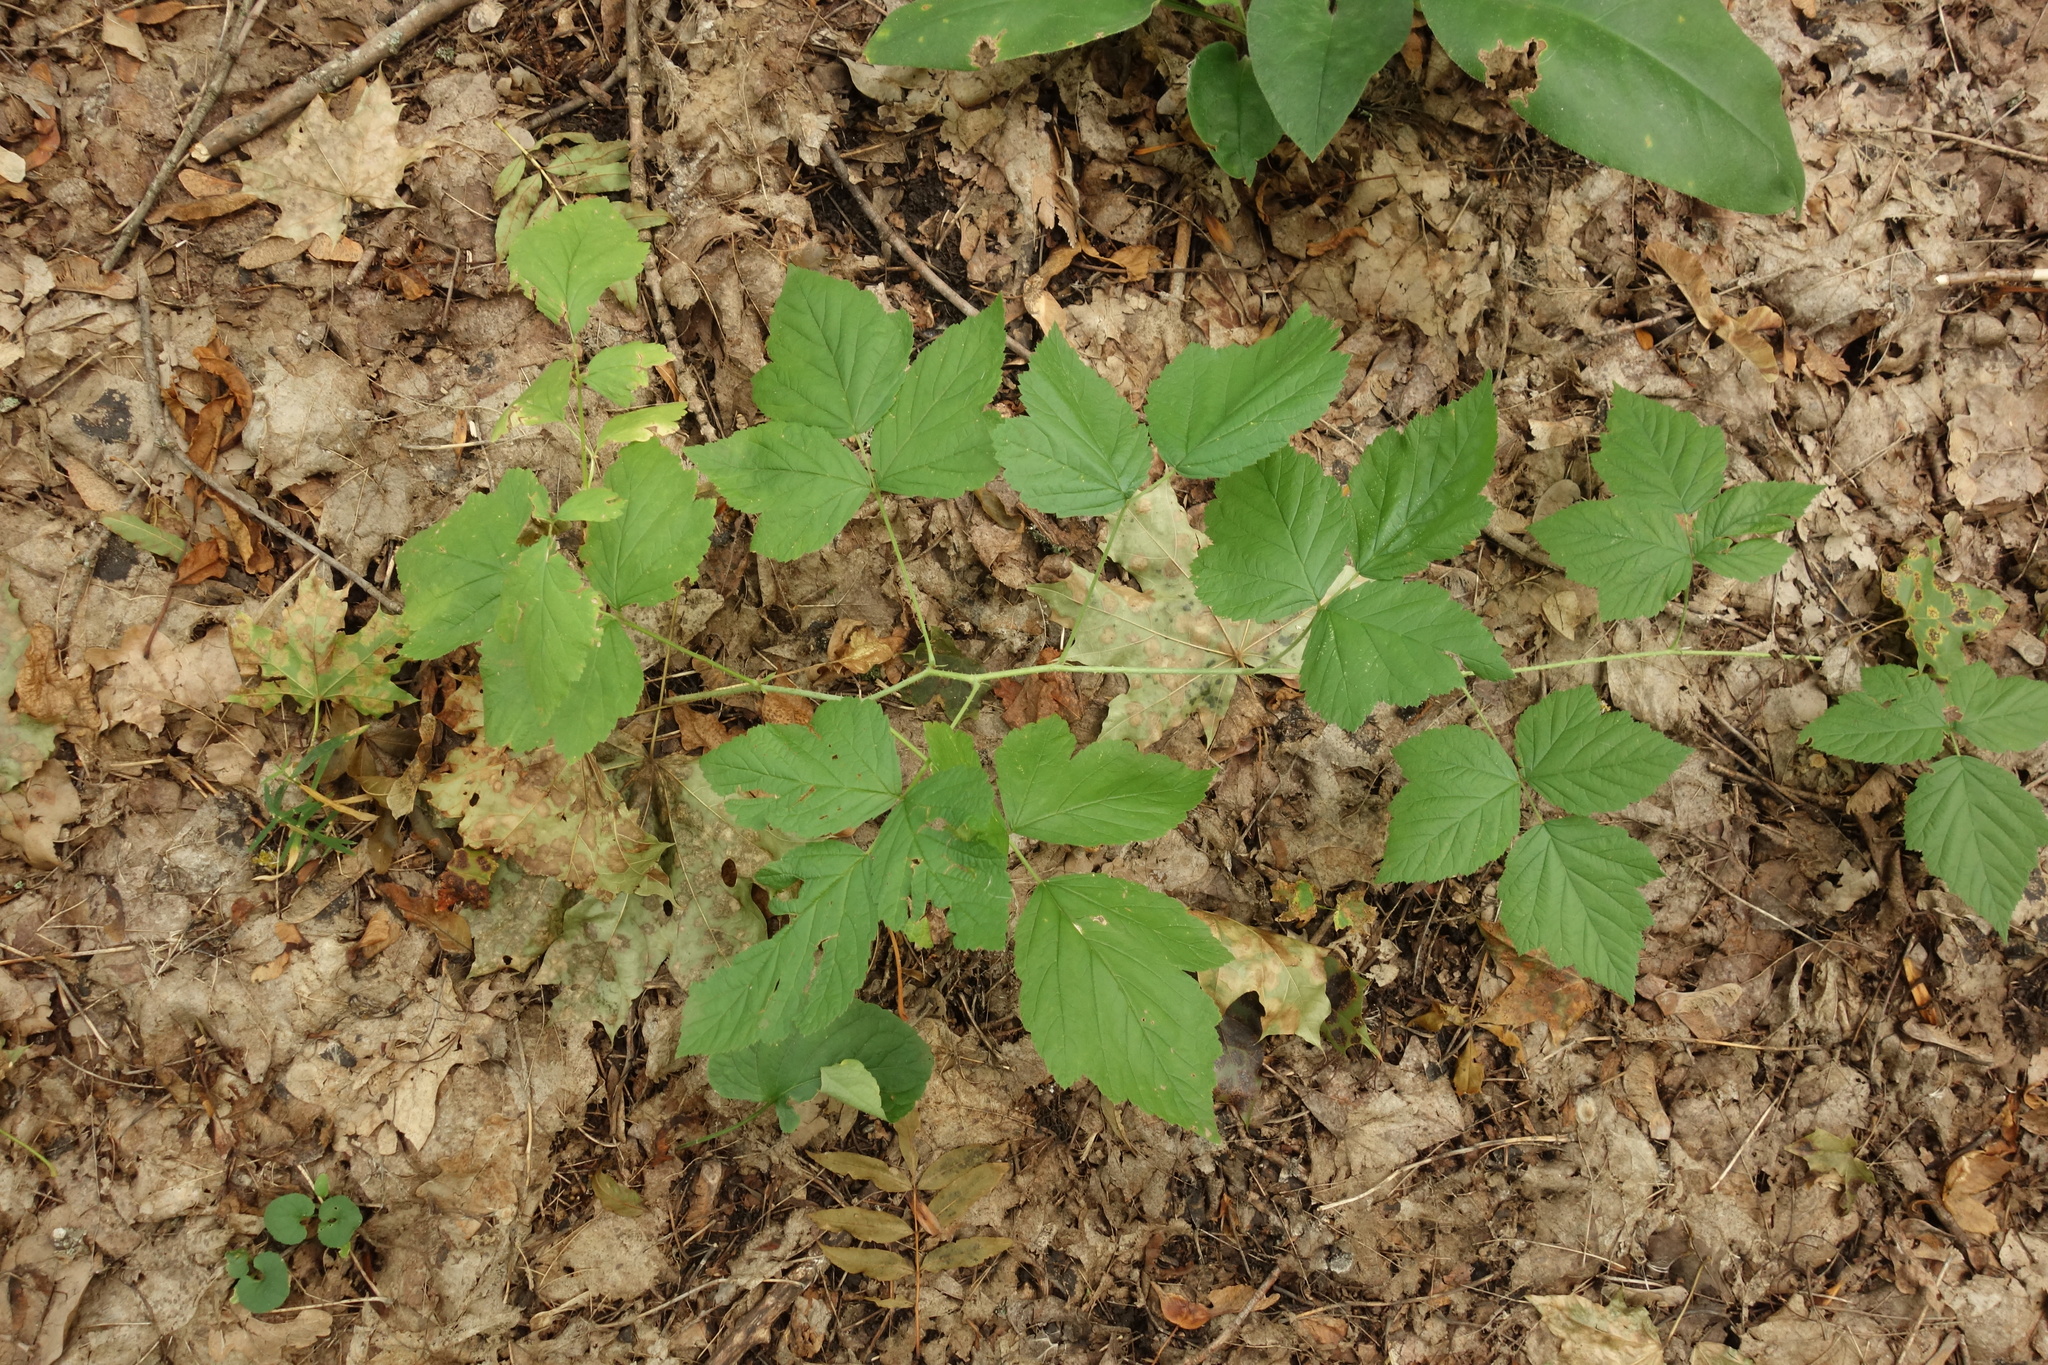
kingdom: Plantae
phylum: Tracheophyta
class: Magnoliopsida
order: Rosales
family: Rosaceae
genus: Rubus
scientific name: Rubus caesius
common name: Dewberry
